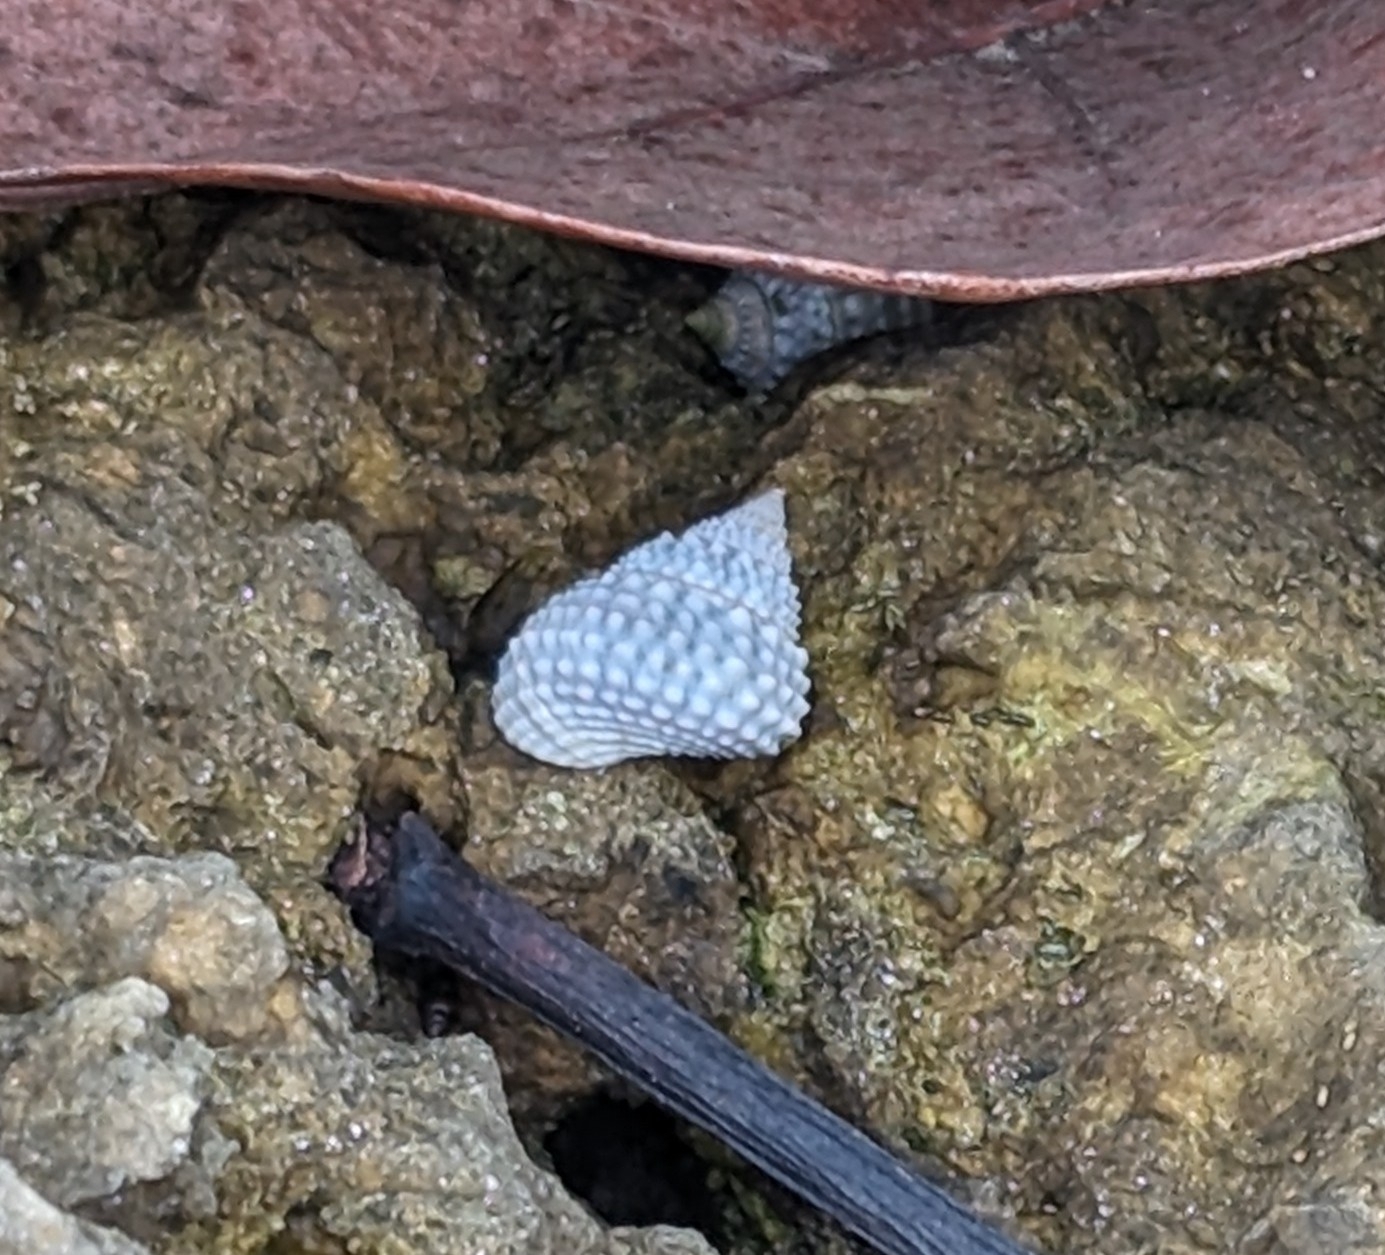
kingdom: Animalia
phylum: Mollusca
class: Gastropoda
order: Littorinimorpha
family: Littorinidae
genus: Cenchritis
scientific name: Cenchritis muricatus
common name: Beaded periwinkle
